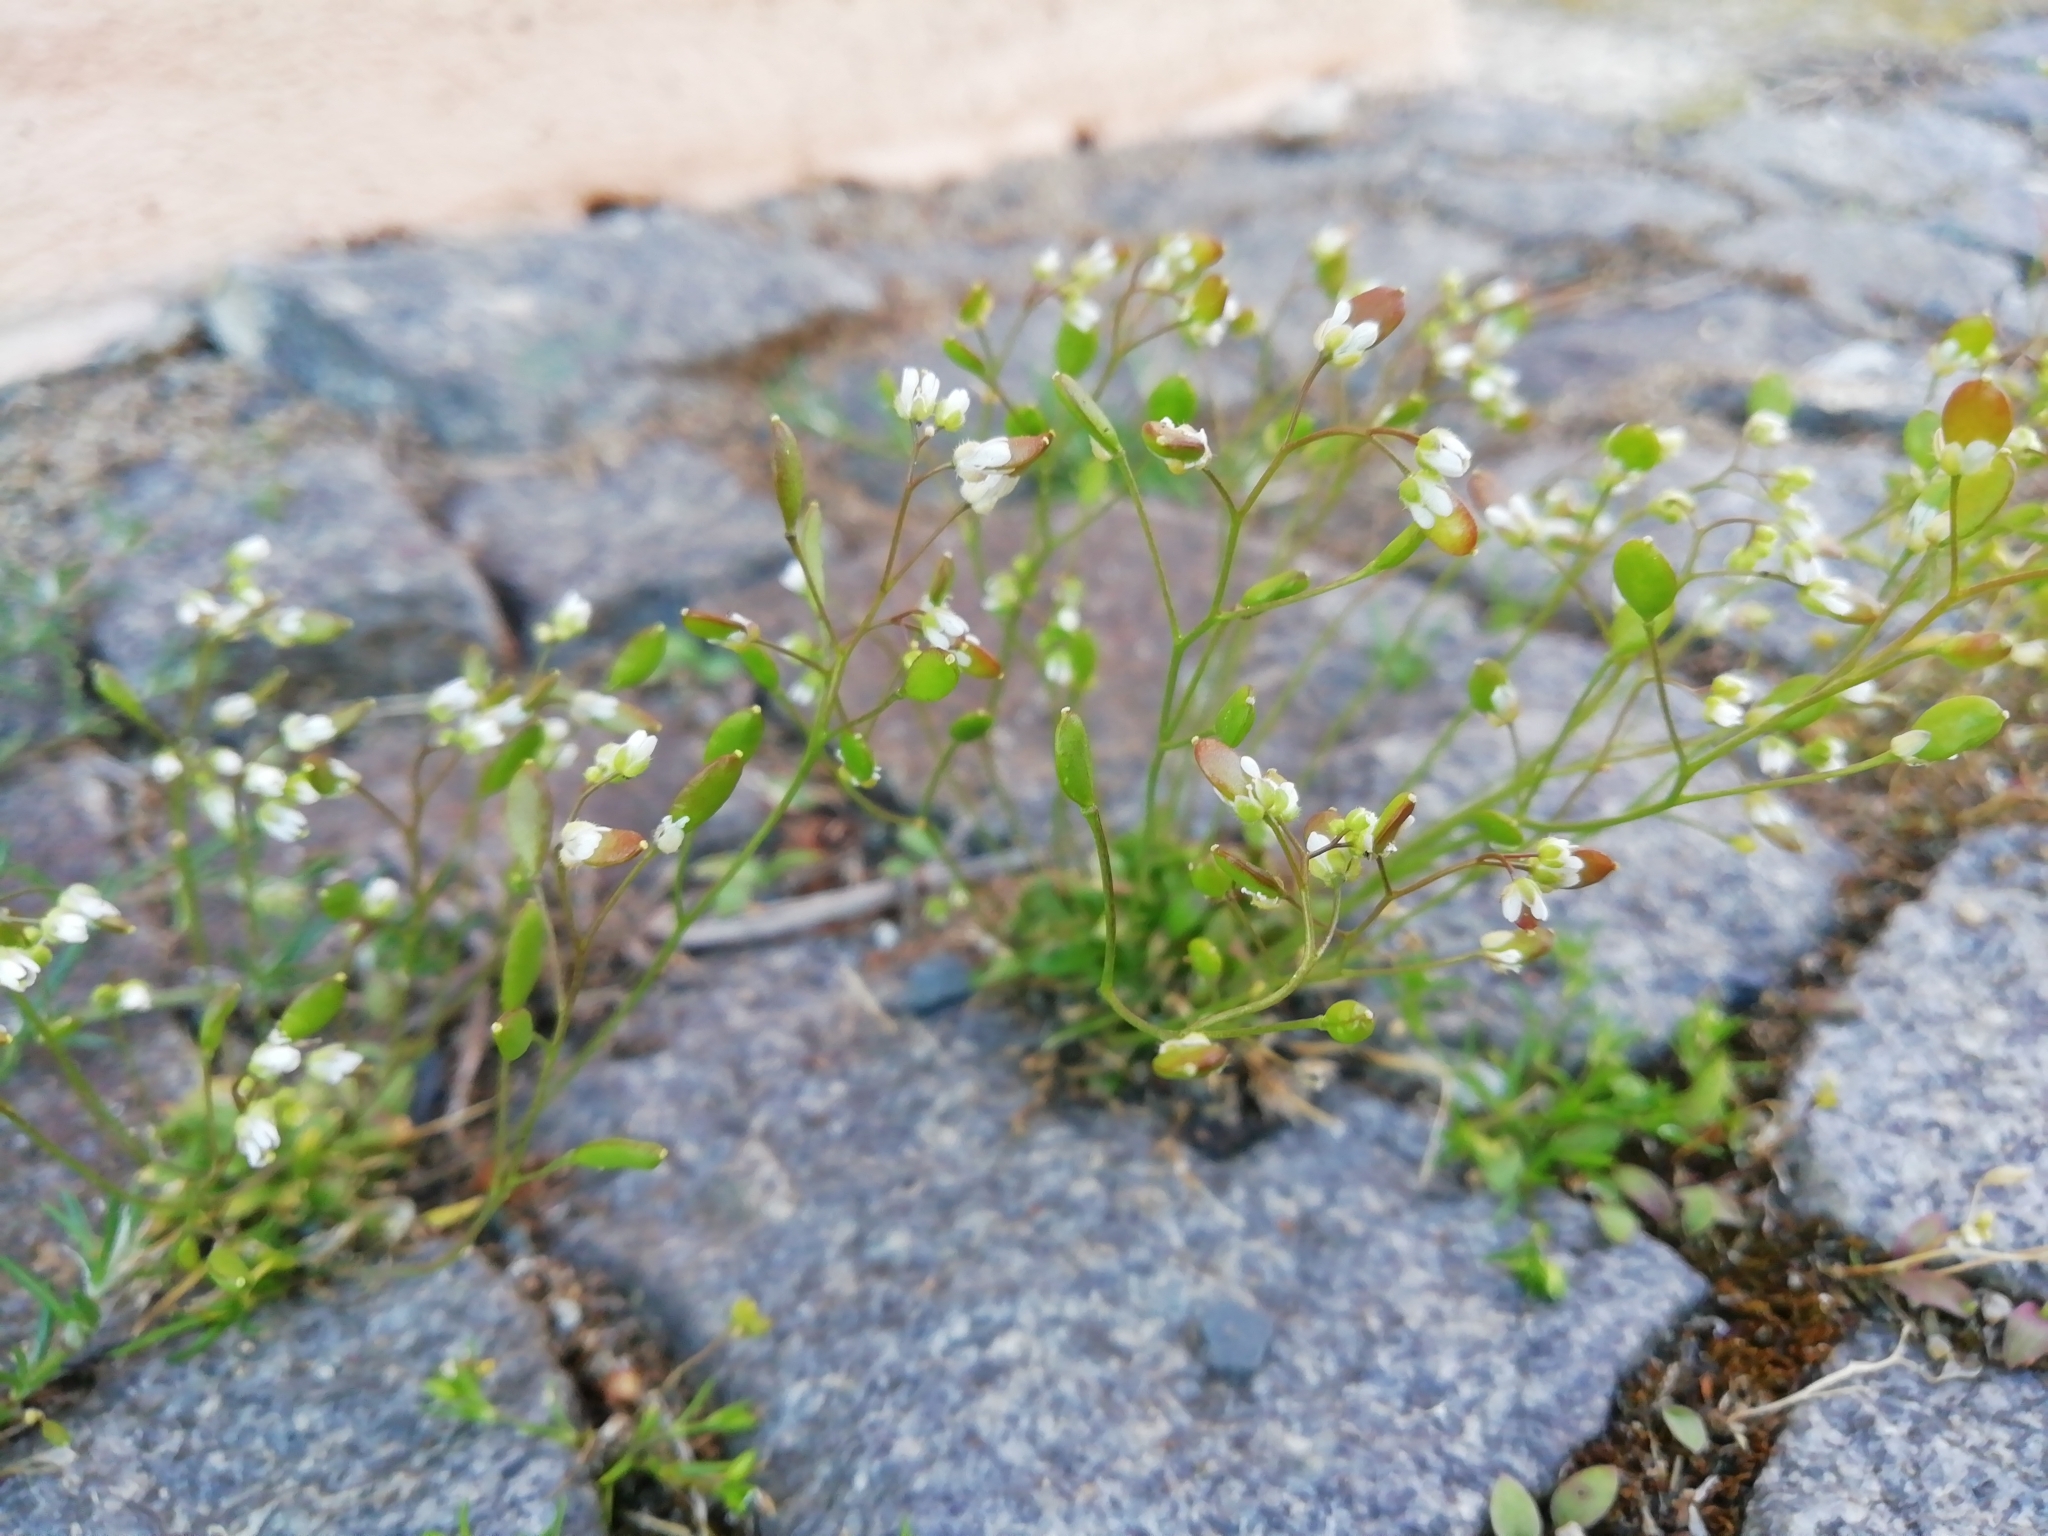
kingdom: Plantae
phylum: Tracheophyta
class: Magnoliopsida
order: Brassicales
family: Brassicaceae
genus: Draba
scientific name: Draba verna
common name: Spring draba
